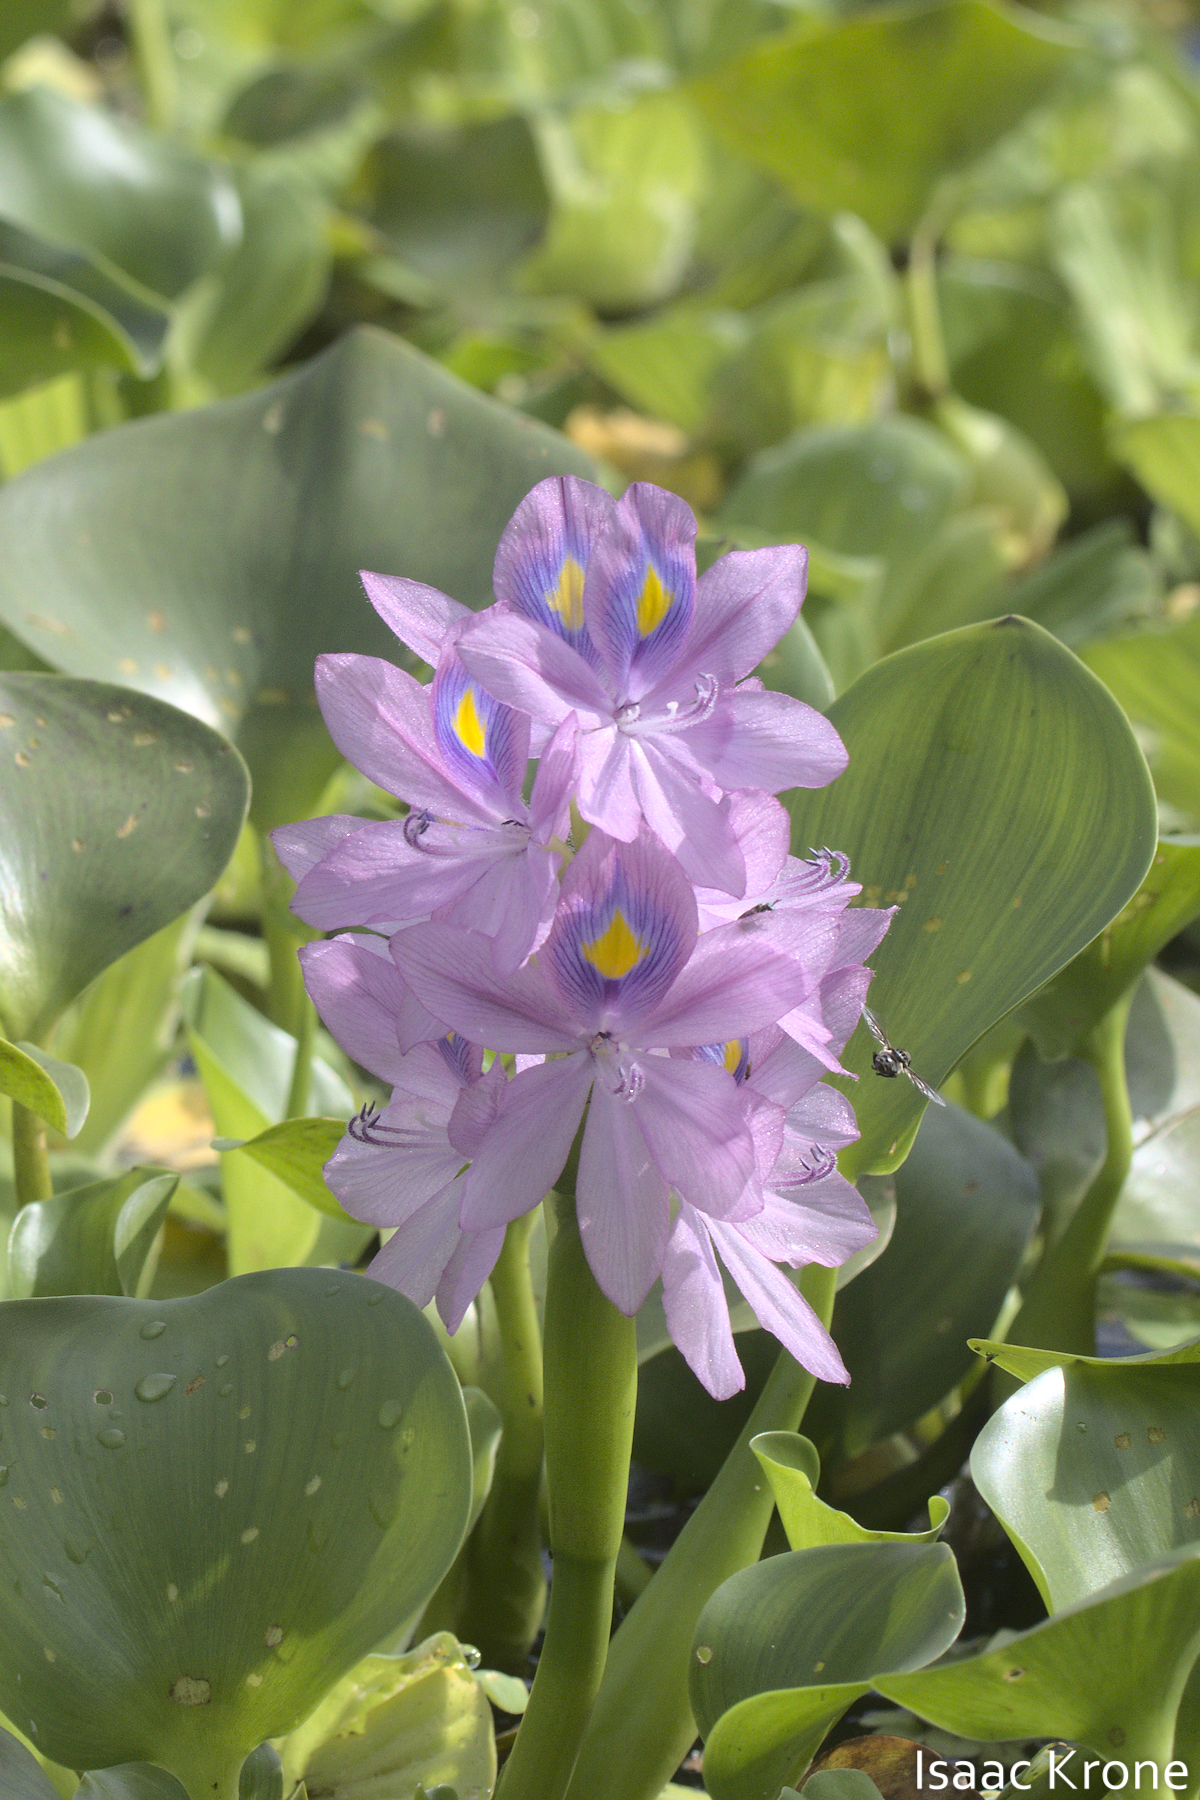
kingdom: Plantae
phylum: Tracheophyta
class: Liliopsida
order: Commelinales
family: Pontederiaceae
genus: Pontederia
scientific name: Pontederia crassipes
